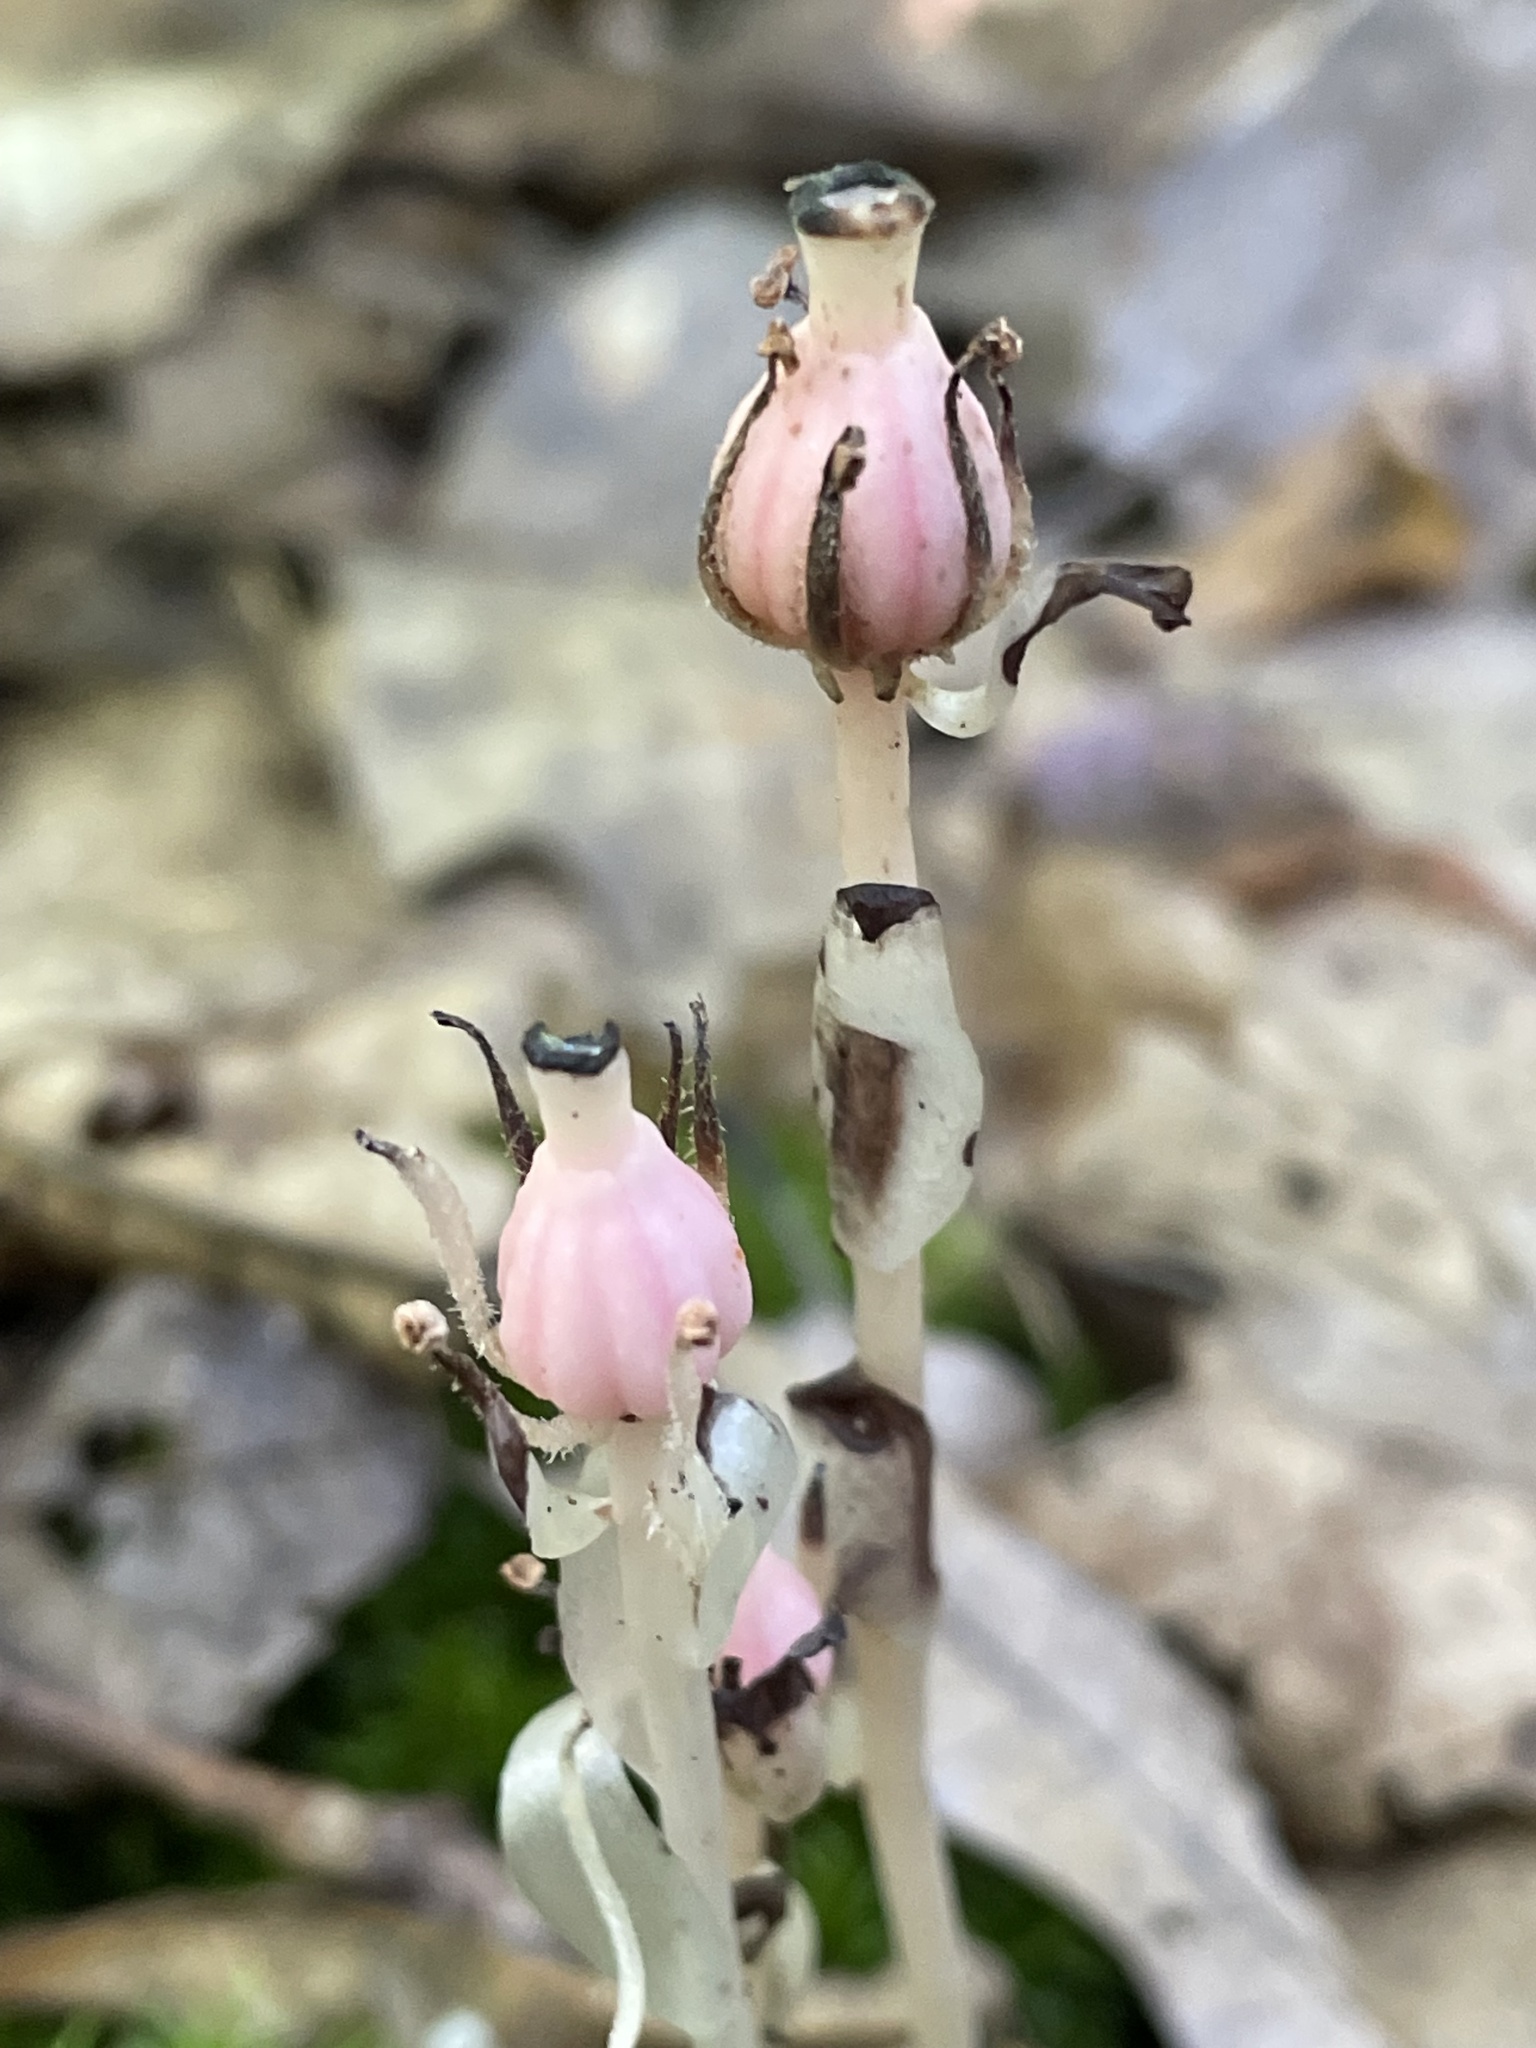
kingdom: Plantae
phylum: Tracheophyta
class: Magnoliopsida
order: Ericales
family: Ericaceae
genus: Monotropa
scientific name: Monotropa uniflora
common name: Convulsion root
